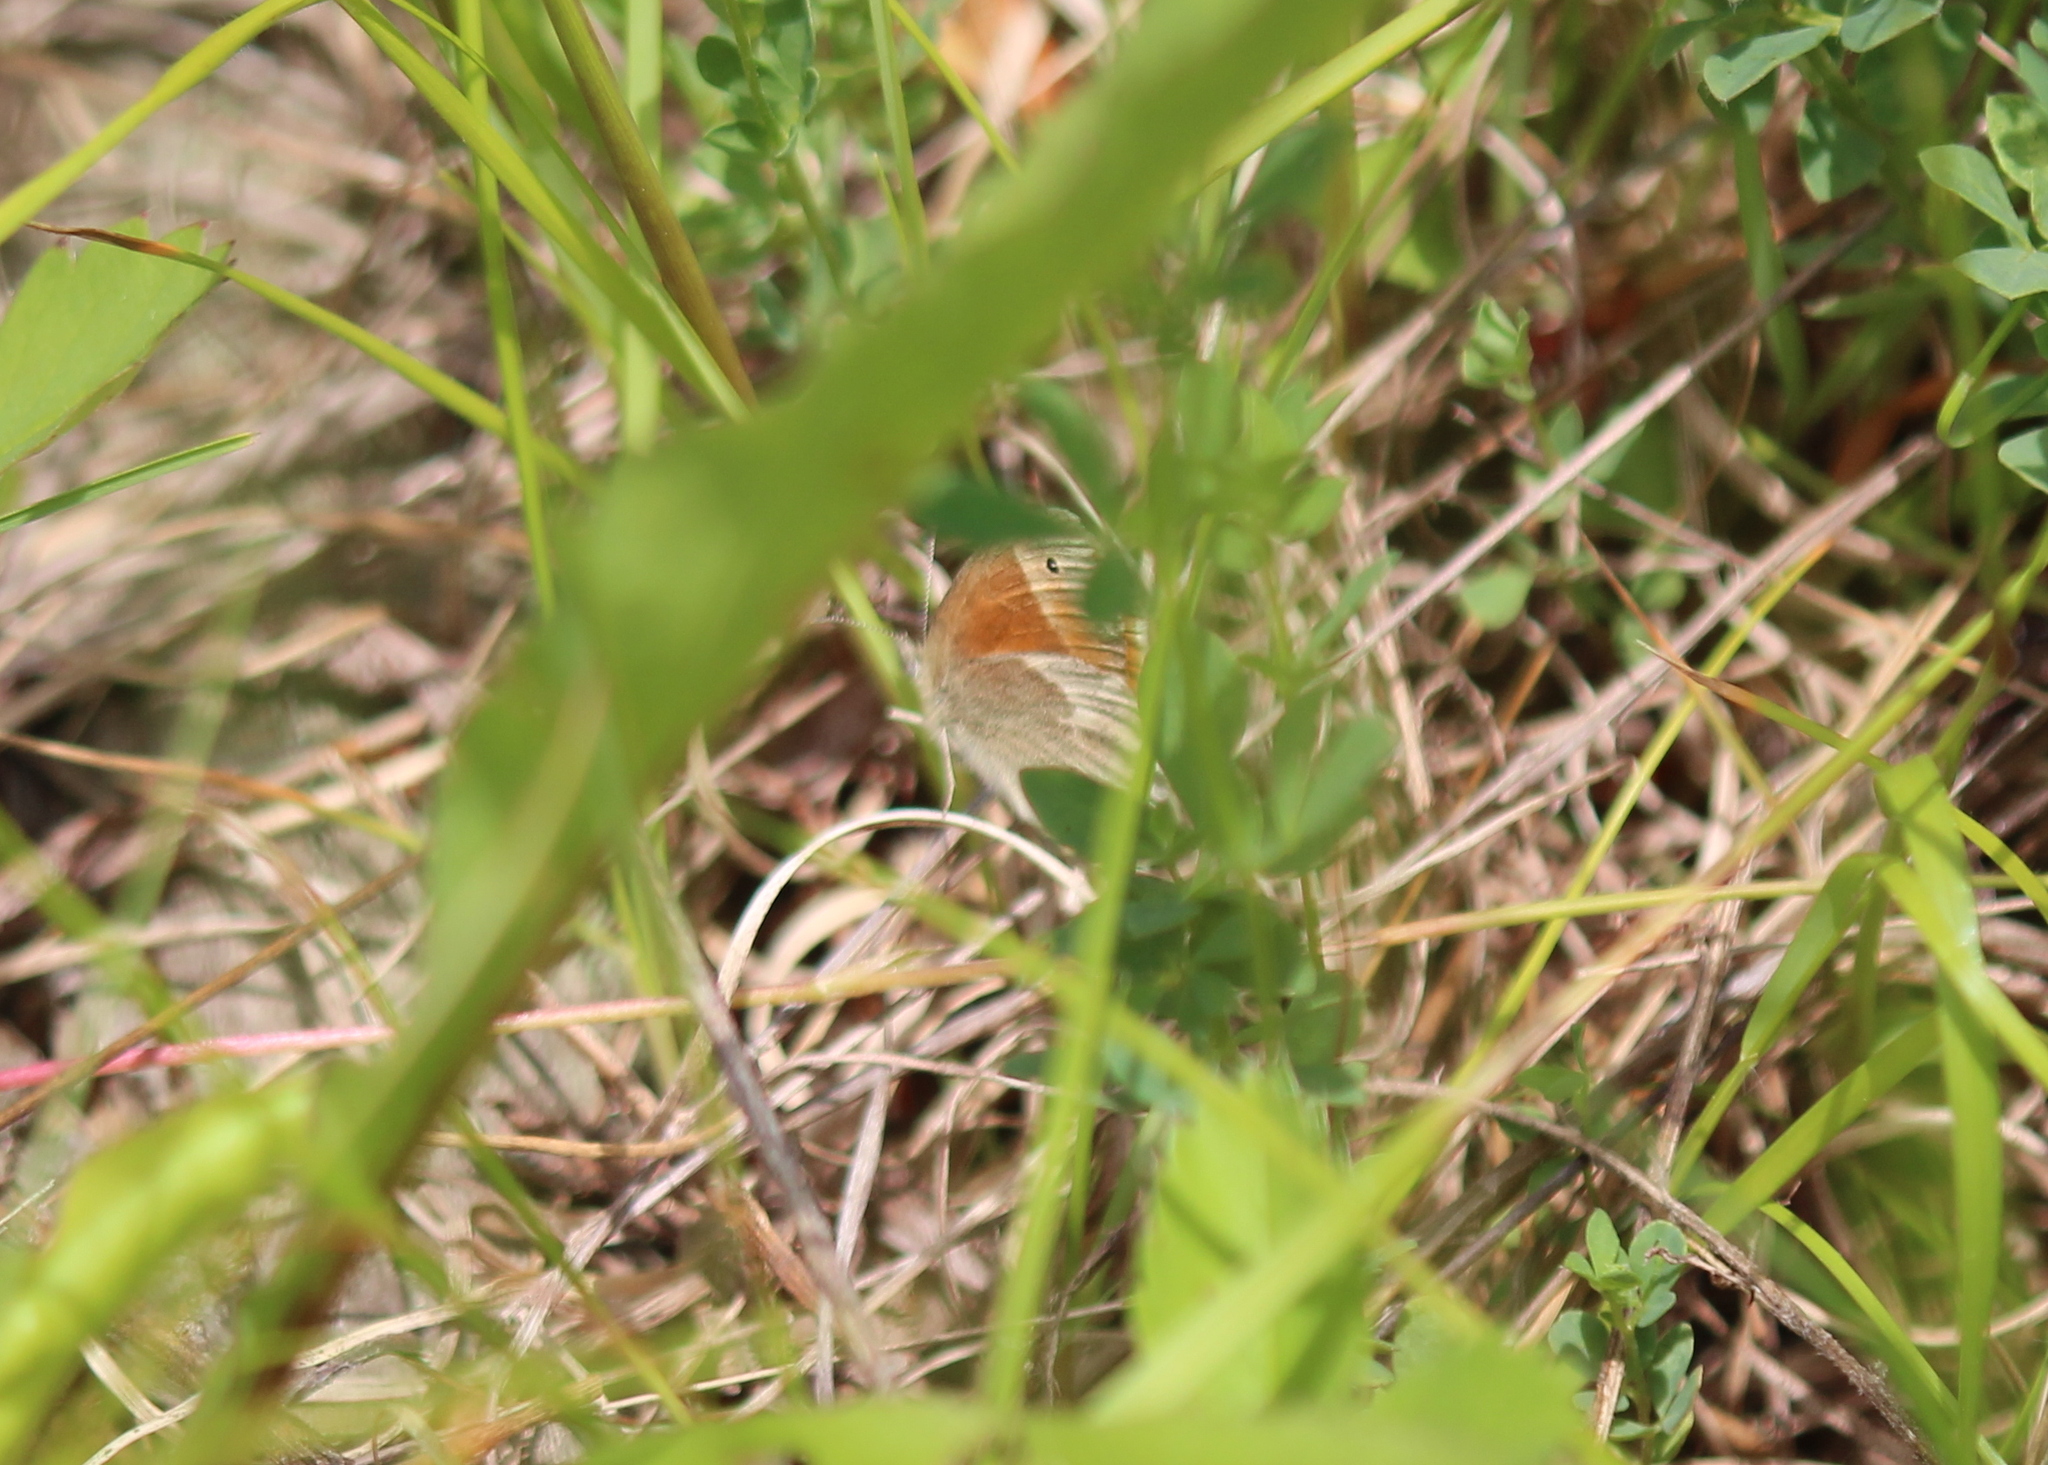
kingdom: Animalia
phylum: Arthropoda
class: Insecta
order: Lepidoptera
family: Nymphalidae
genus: Coenonympha
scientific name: Coenonympha california
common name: Common ringlet
